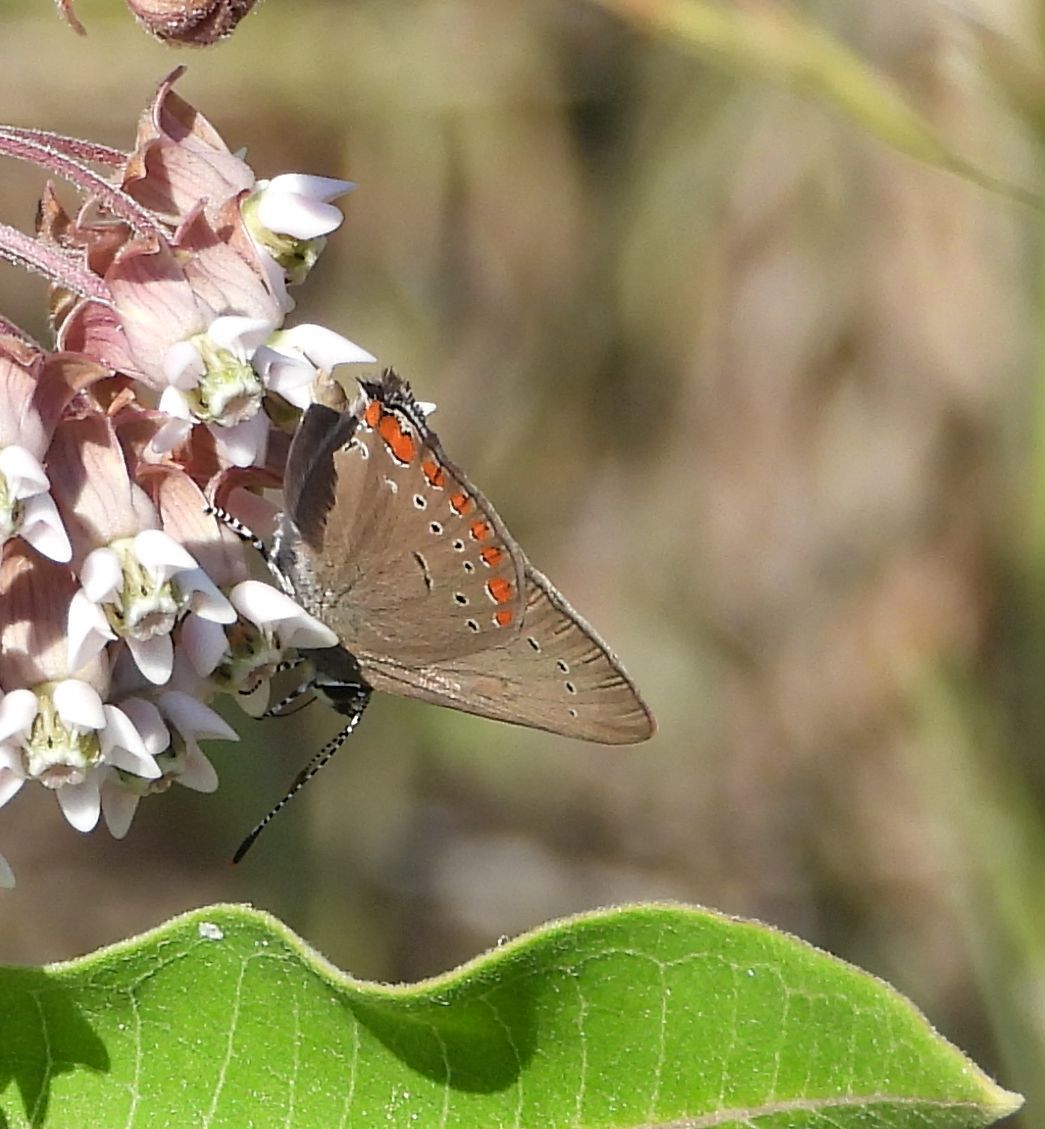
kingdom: Animalia
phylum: Arthropoda
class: Insecta
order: Lepidoptera
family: Lycaenidae
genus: Harkenclenus
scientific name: Harkenclenus titus
